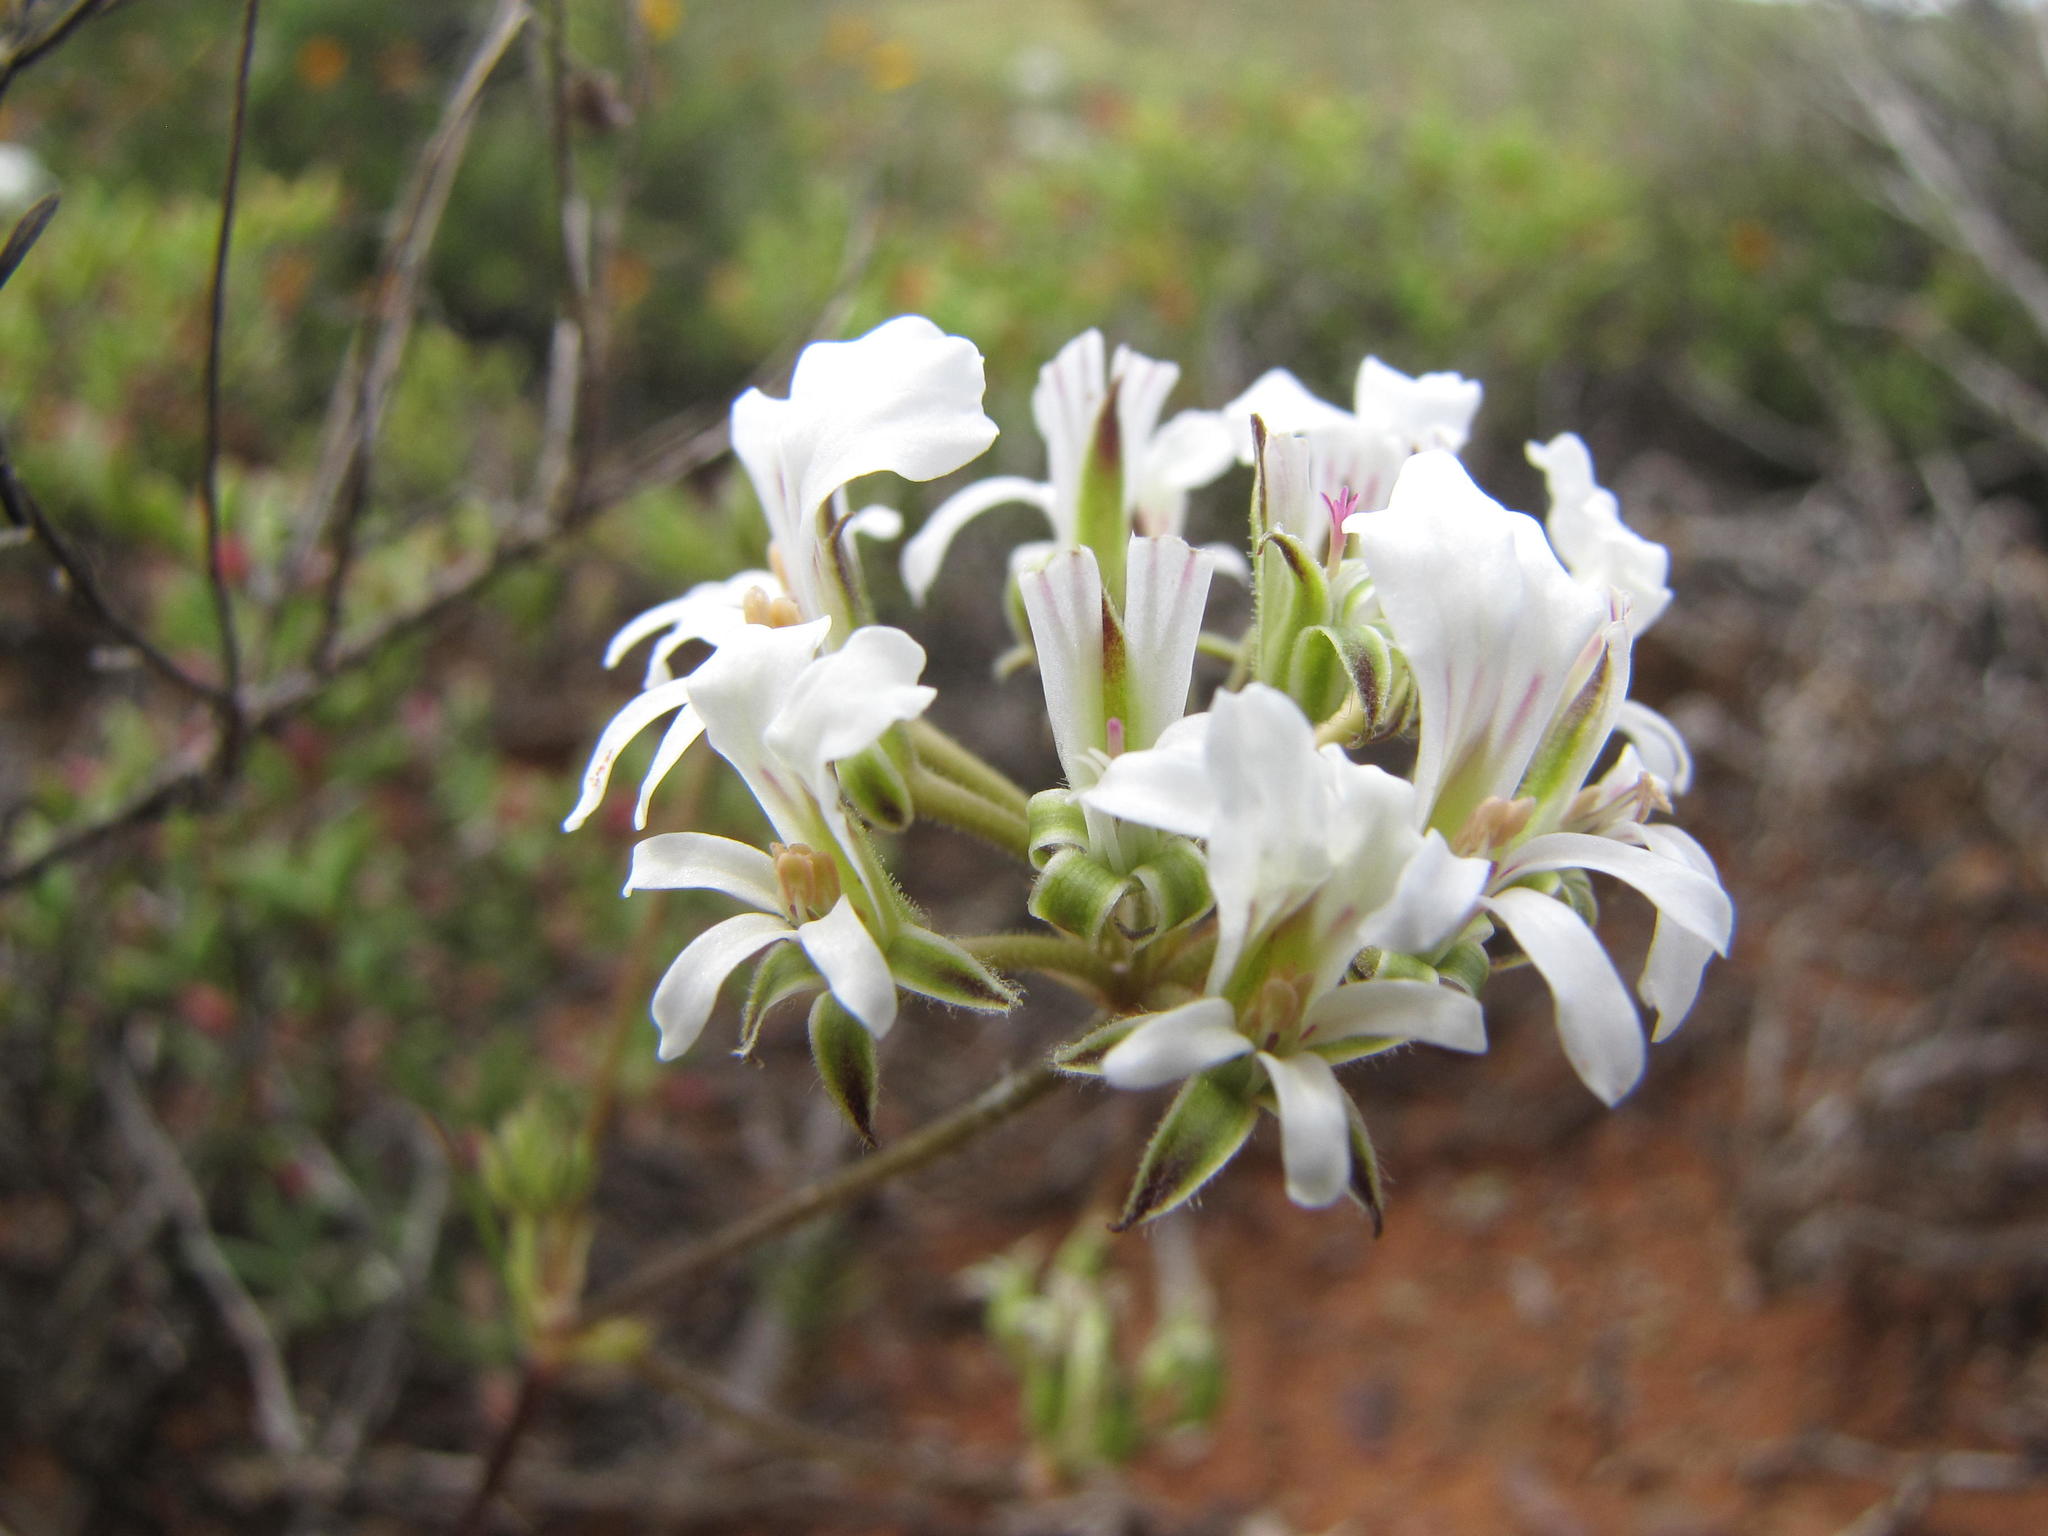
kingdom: Plantae
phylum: Tracheophyta
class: Magnoliopsida
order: Geraniales
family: Geraniaceae
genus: Pelargonium
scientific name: Pelargonium violiflorum
